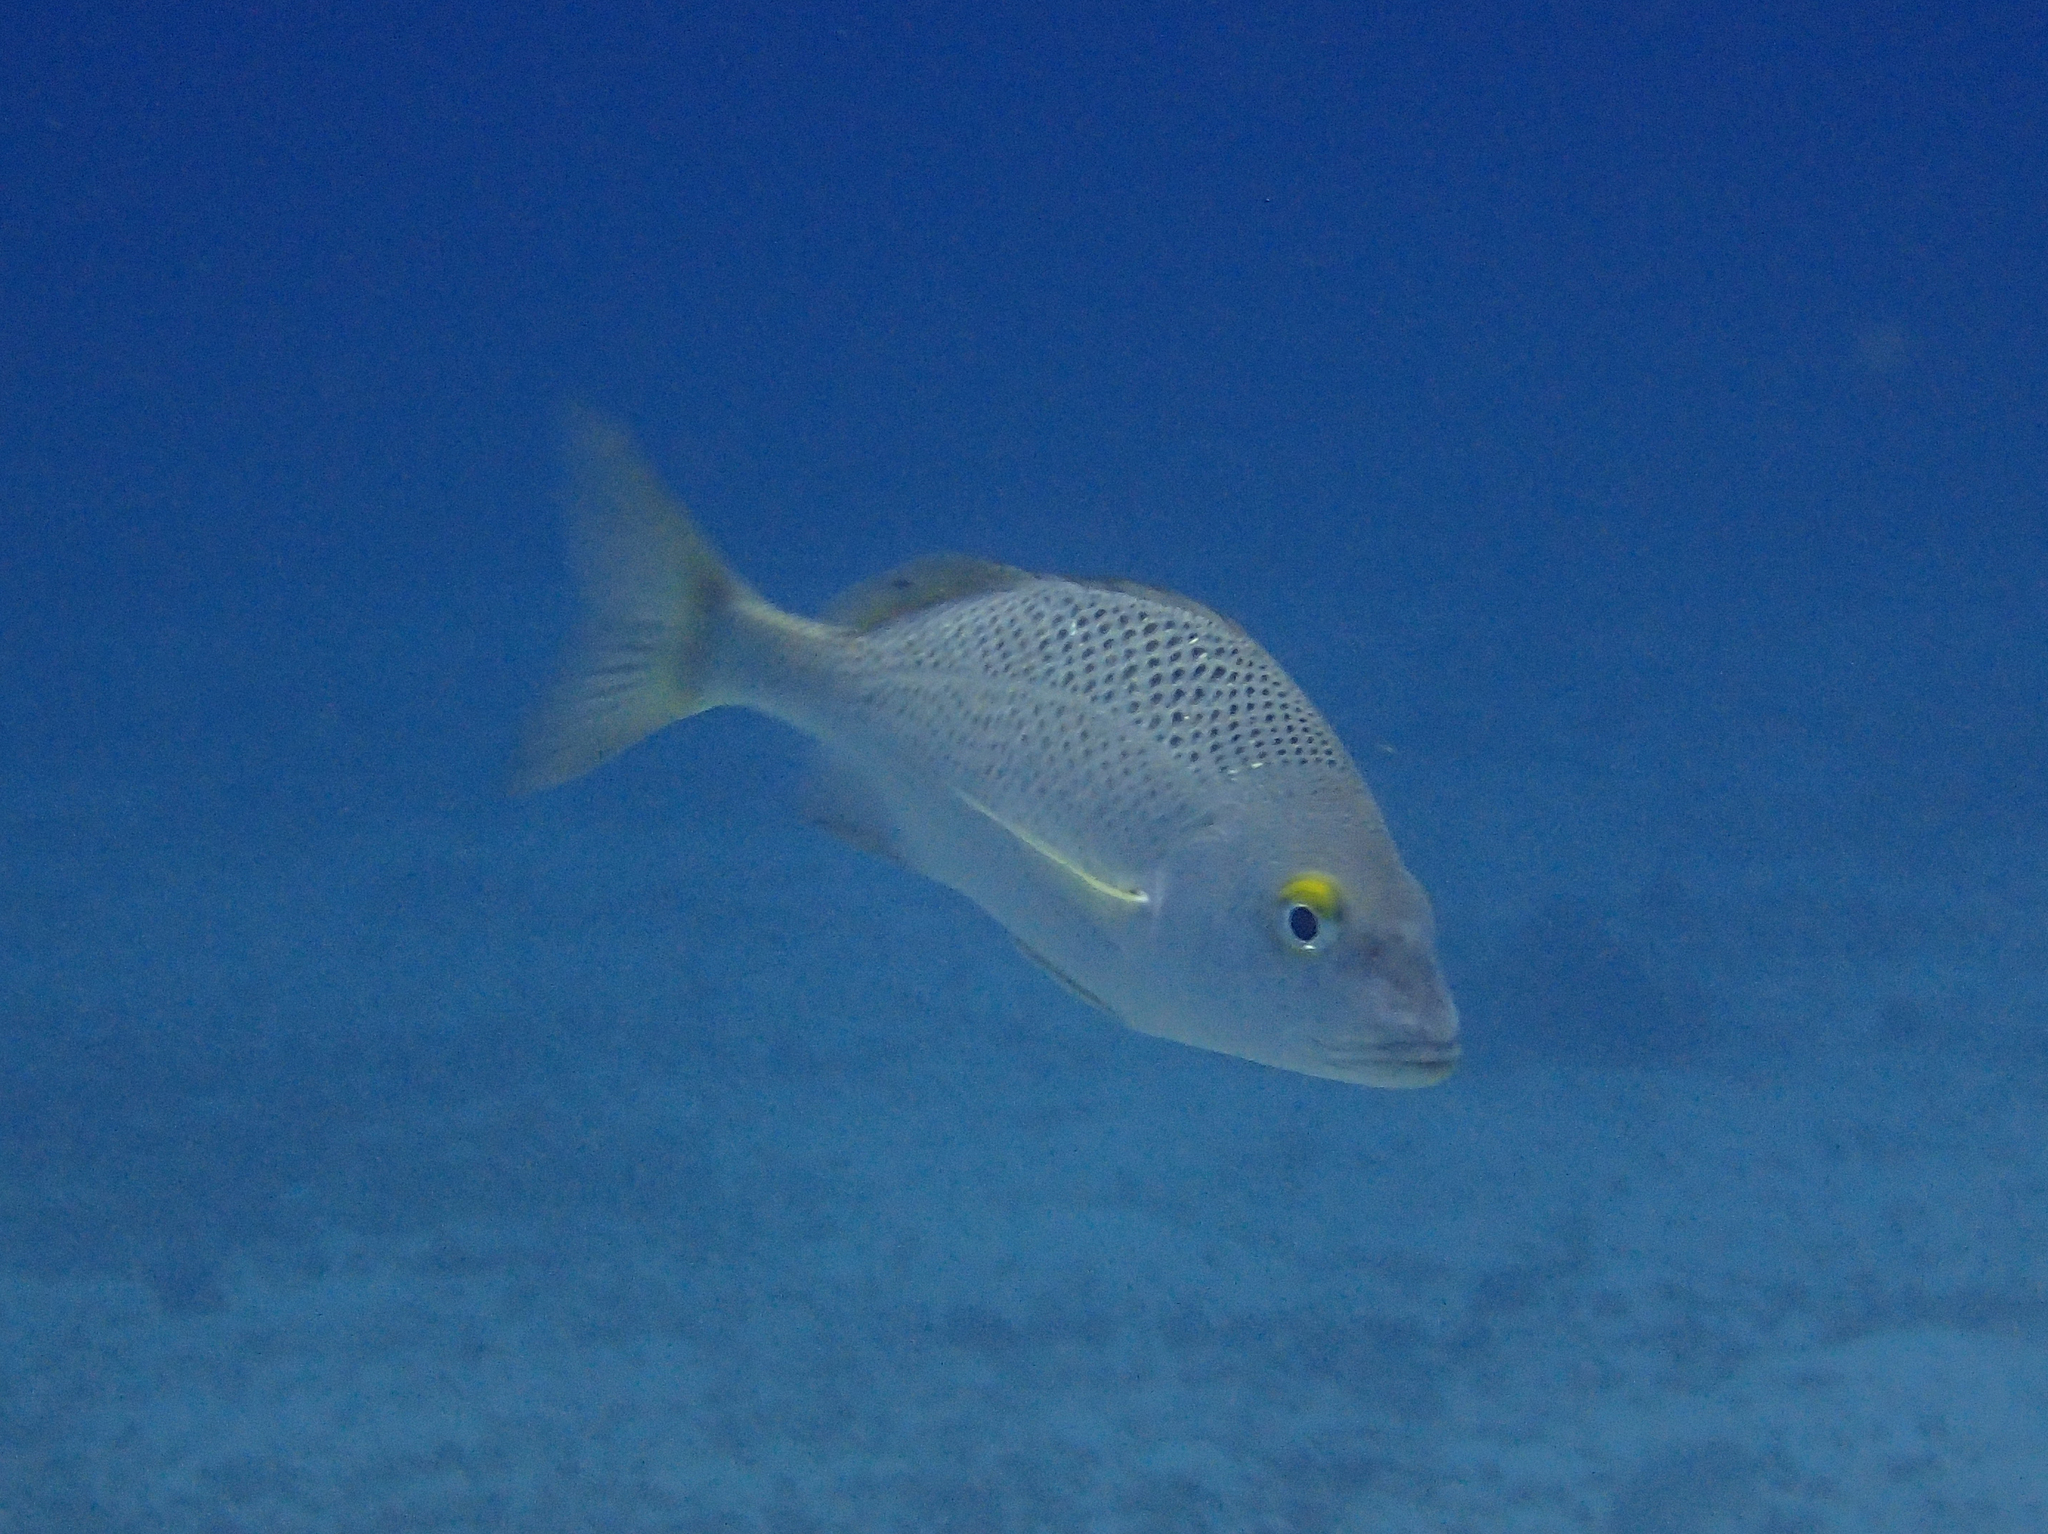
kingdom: Animalia
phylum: Chordata
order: Perciformes
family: Haemulidae
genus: Haemulon
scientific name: Haemulon scudderii
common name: Grey grunt
